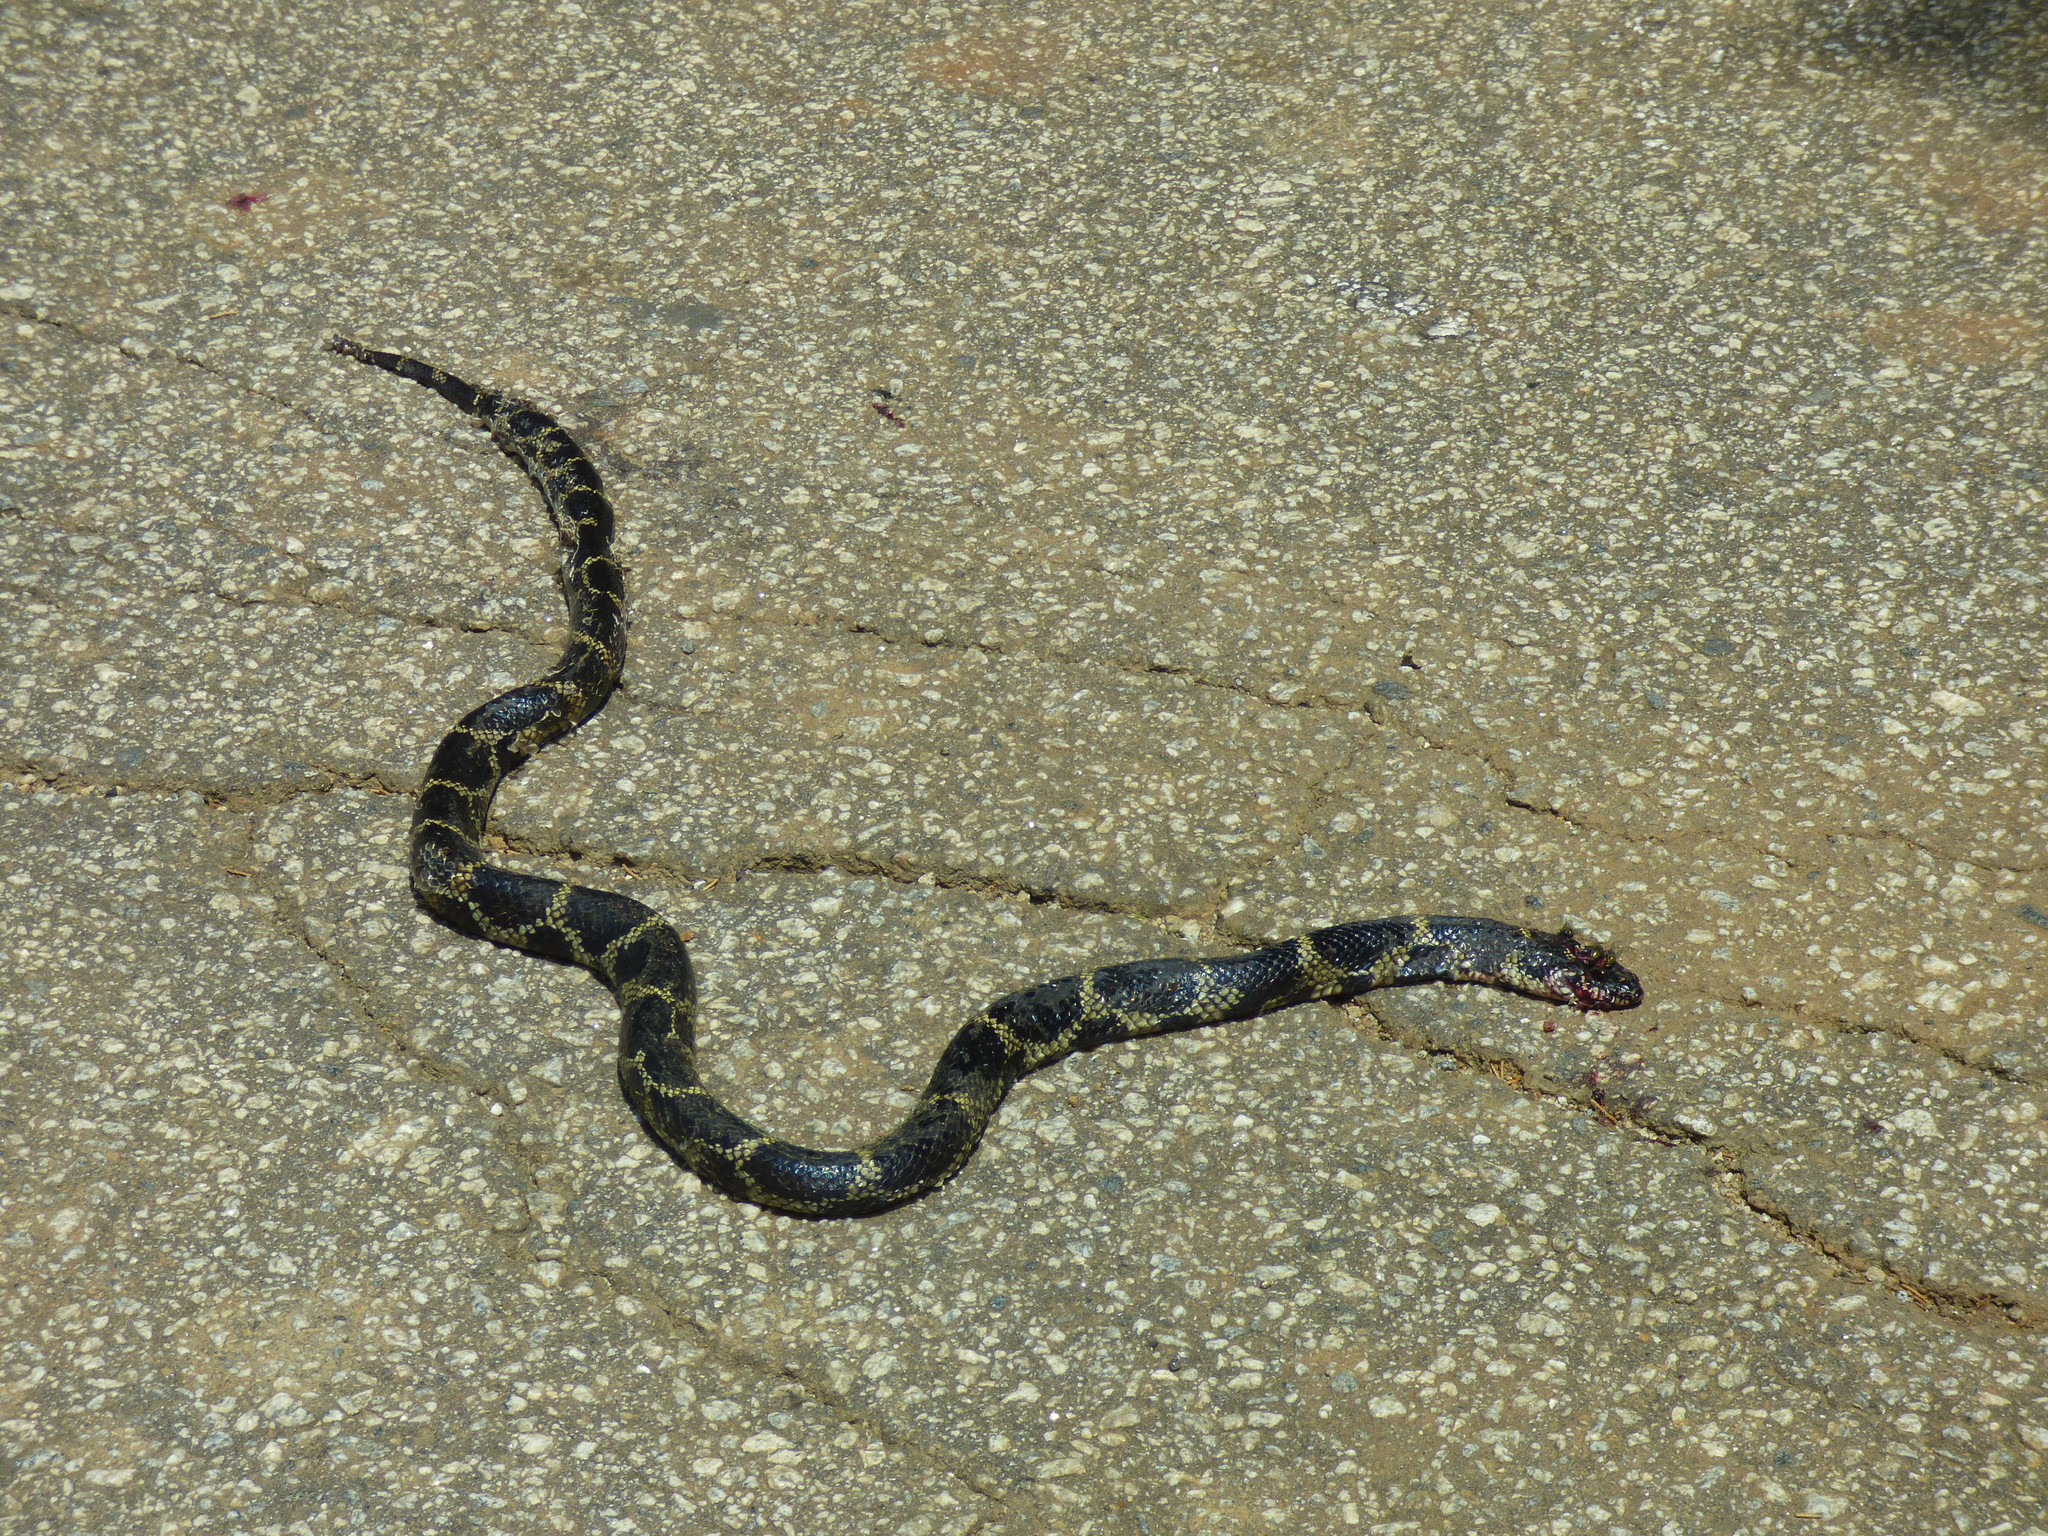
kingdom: Animalia
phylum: Chordata
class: Squamata
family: Colubridae
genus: Lampropeltis
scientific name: Lampropeltis getula
